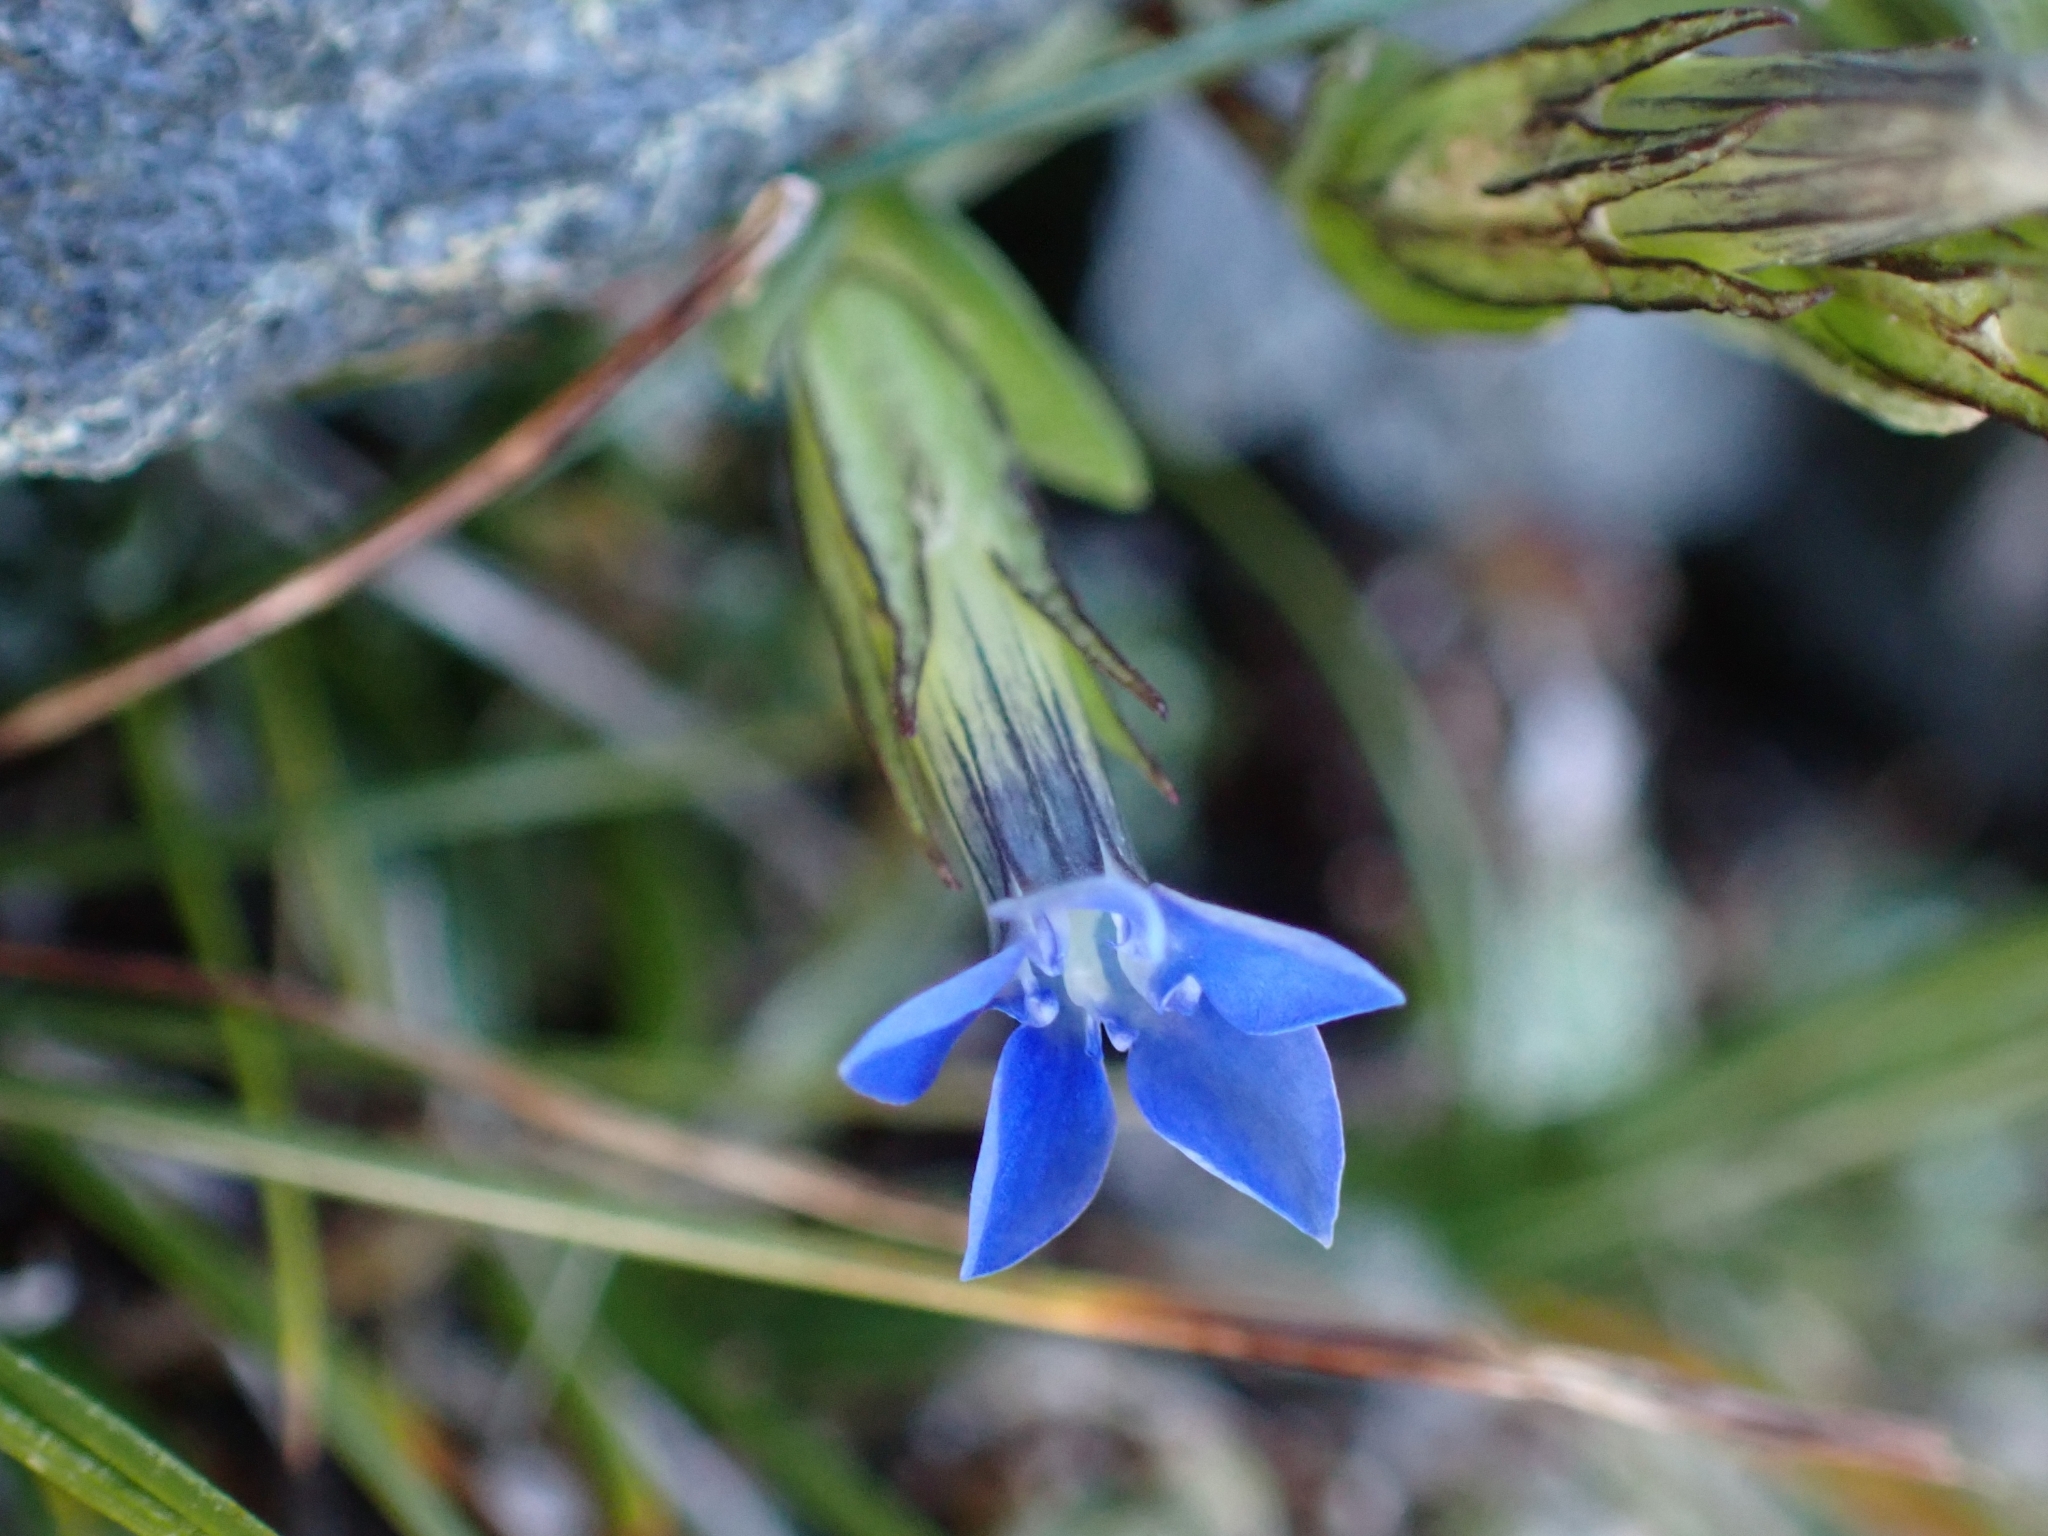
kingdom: Plantae
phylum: Tracheophyta
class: Magnoliopsida
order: Gentianales
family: Gentianaceae
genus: Gentiana
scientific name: Gentiana nivalis
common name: Alpine gentian
